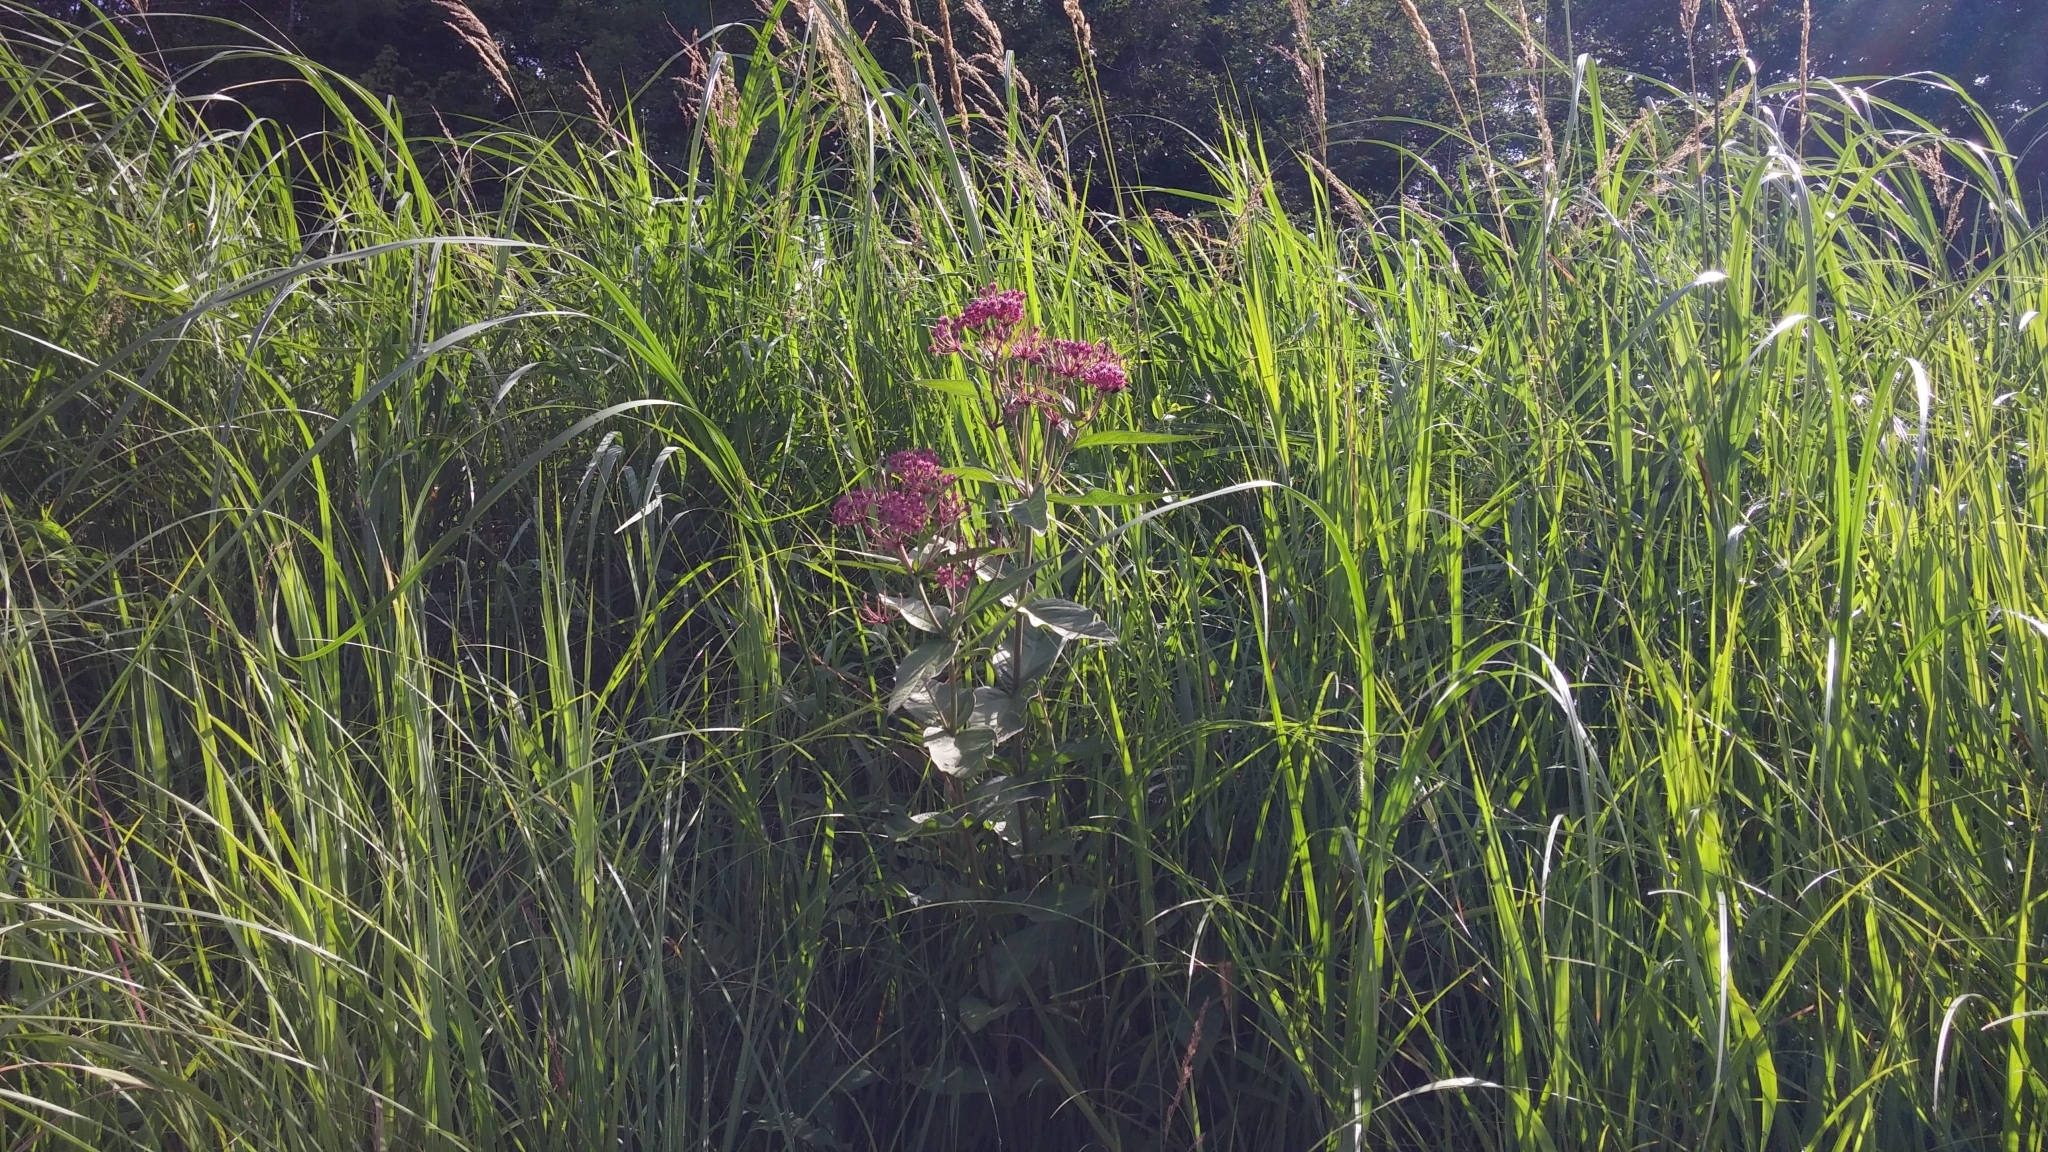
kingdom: Plantae
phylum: Tracheophyta
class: Magnoliopsida
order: Gentianales
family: Apocynaceae
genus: Asclepias
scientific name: Asclepias incarnata
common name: Swamp milkweed
